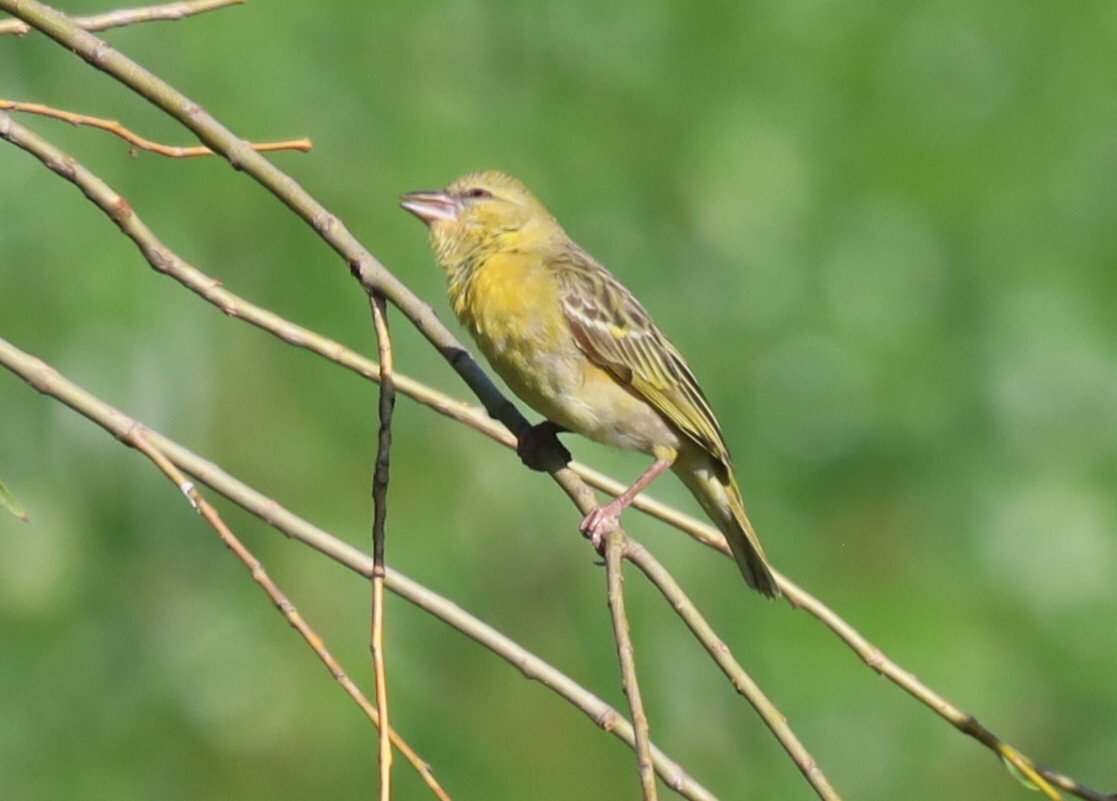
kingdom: Animalia
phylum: Chordata
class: Aves
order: Passeriformes
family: Ploceidae
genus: Ploceus
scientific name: Ploceus velatus
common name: Southern masked weaver
